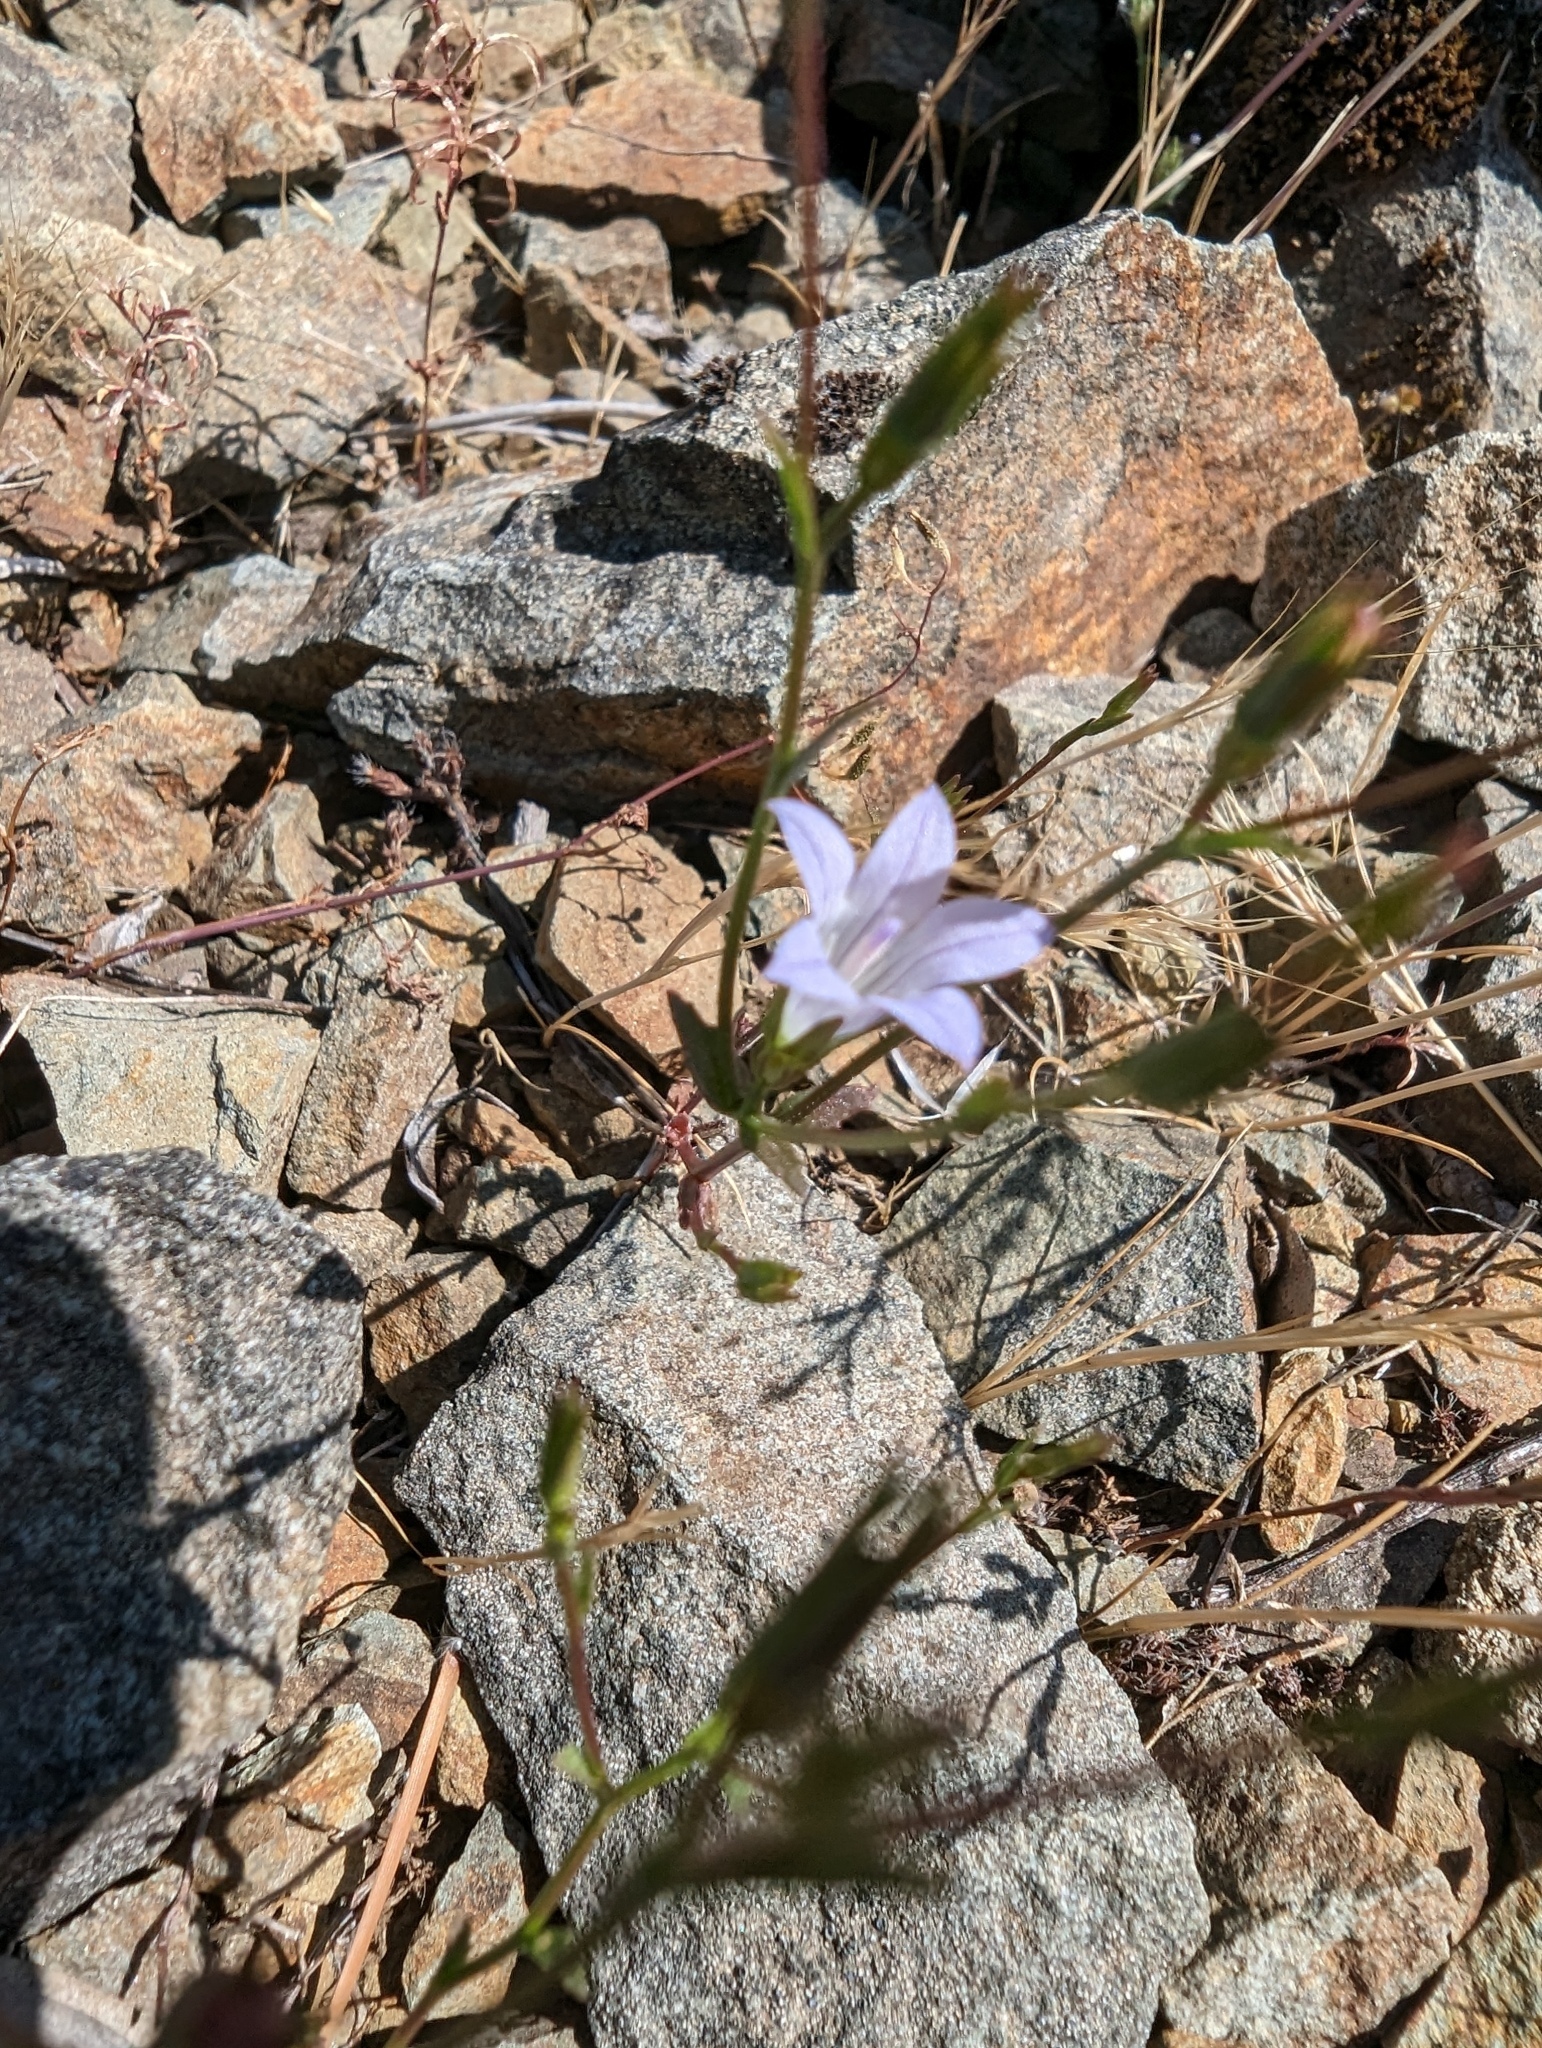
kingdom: Plantae
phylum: Tracheophyta
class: Magnoliopsida
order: Asterales
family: Campanulaceae
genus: Ravenella
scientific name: Ravenella exigua
